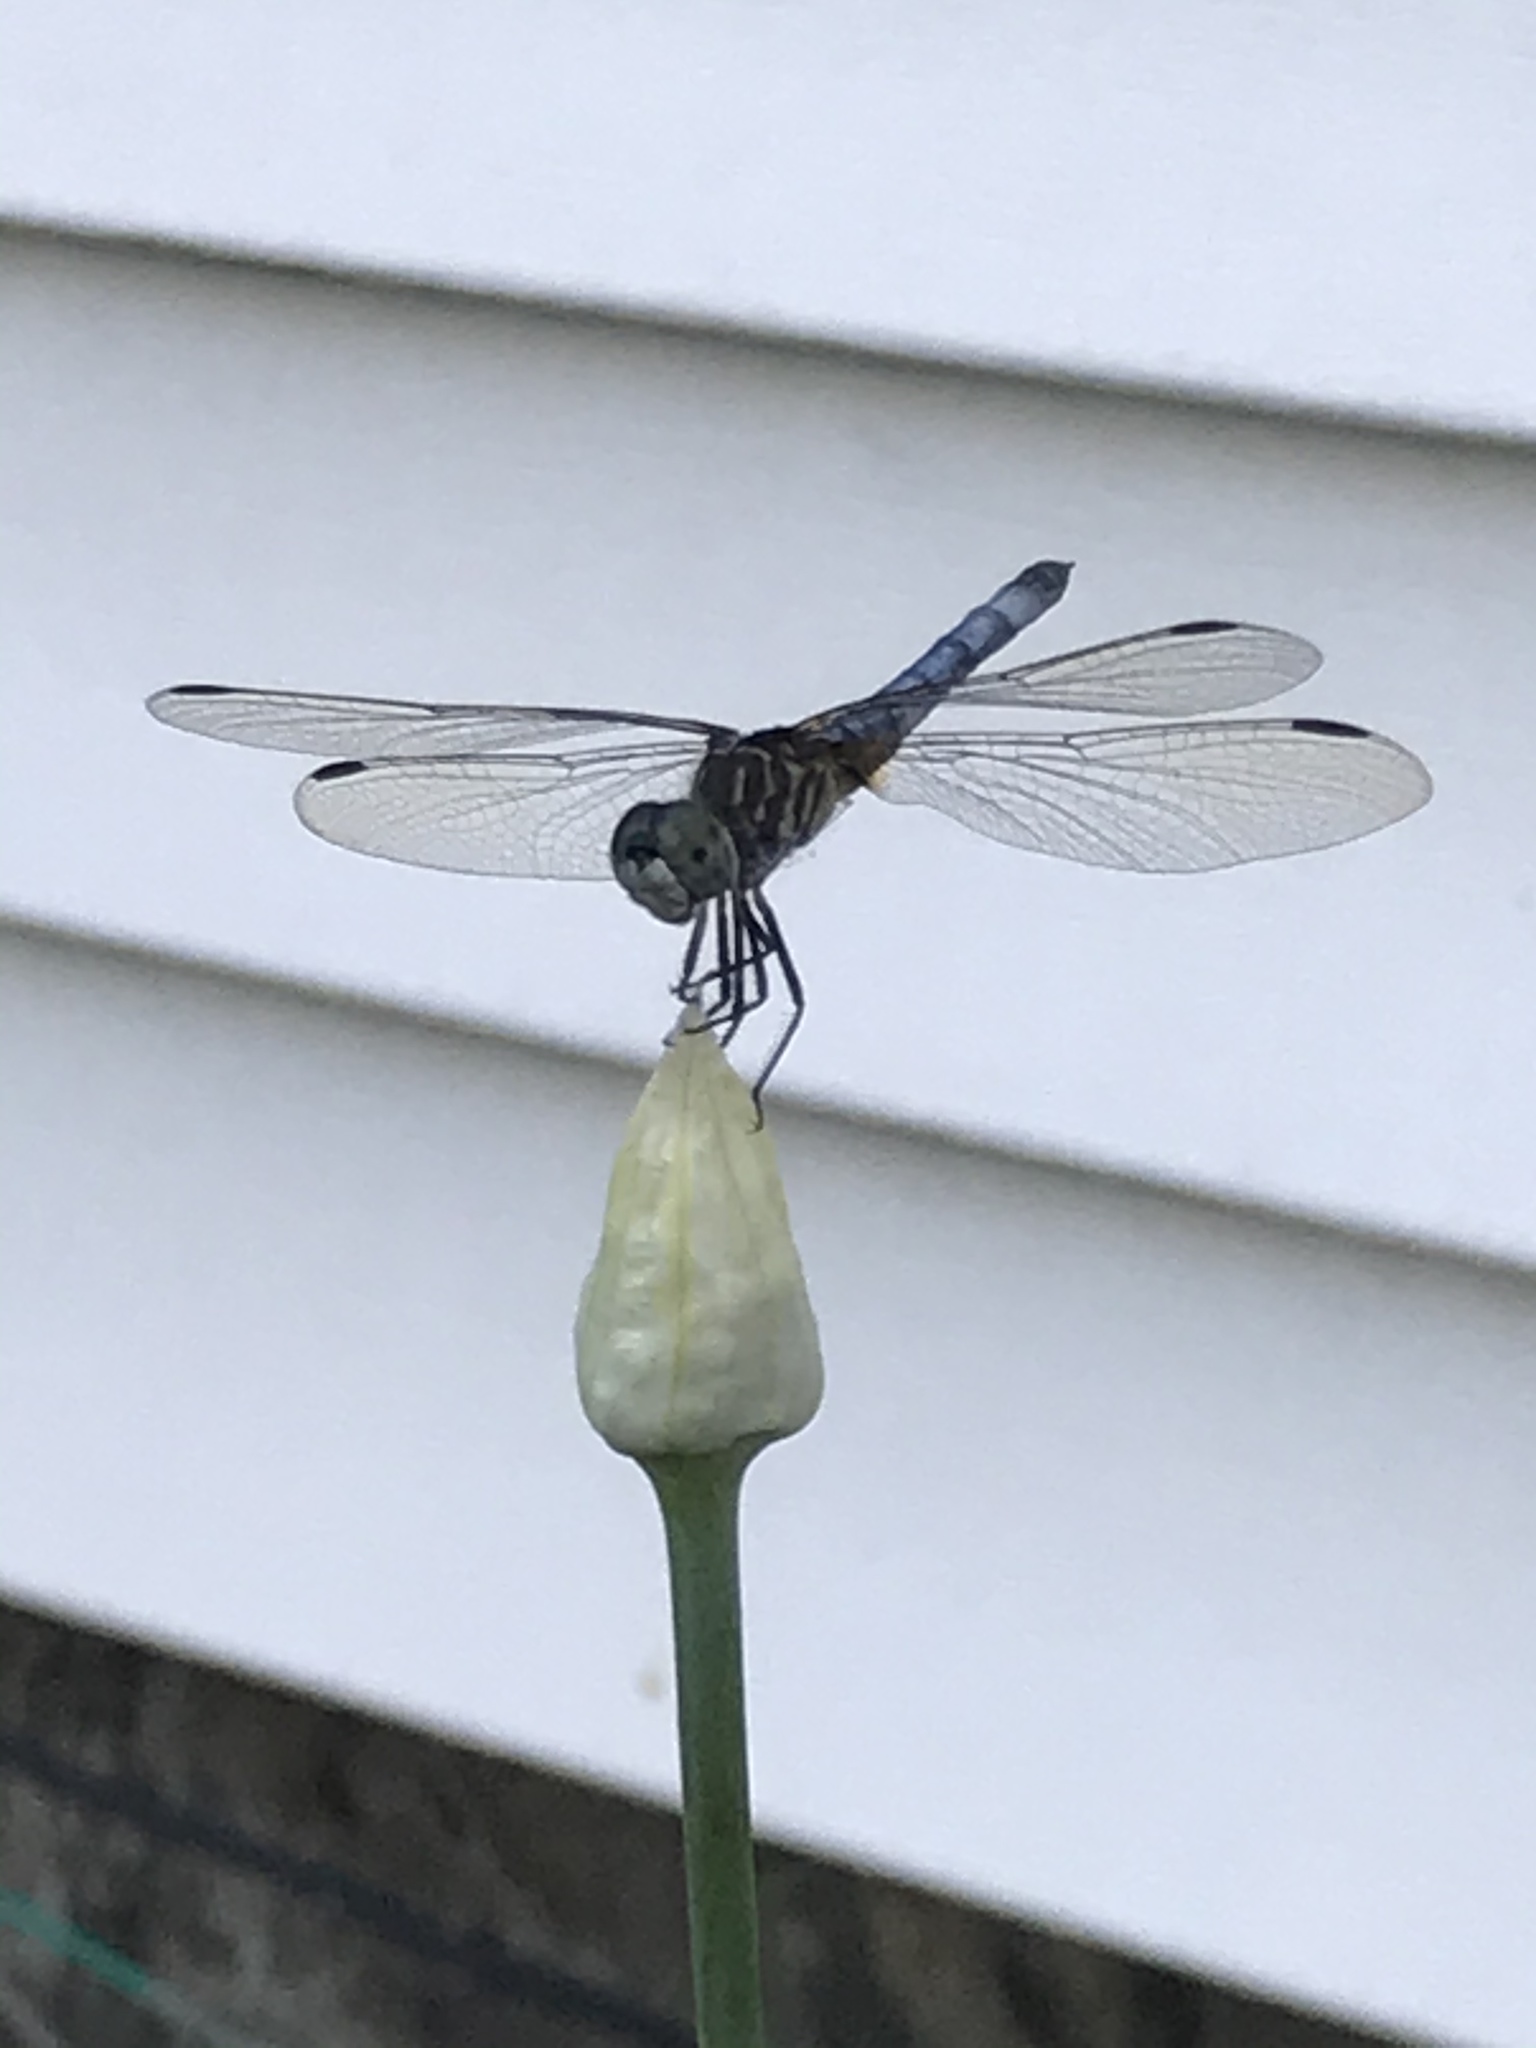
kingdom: Animalia
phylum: Arthropoda
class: Insecta
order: Odonata
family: Libellulidae
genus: Pachydiplax
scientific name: Pachydiplax longipennis
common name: Blue dasher
